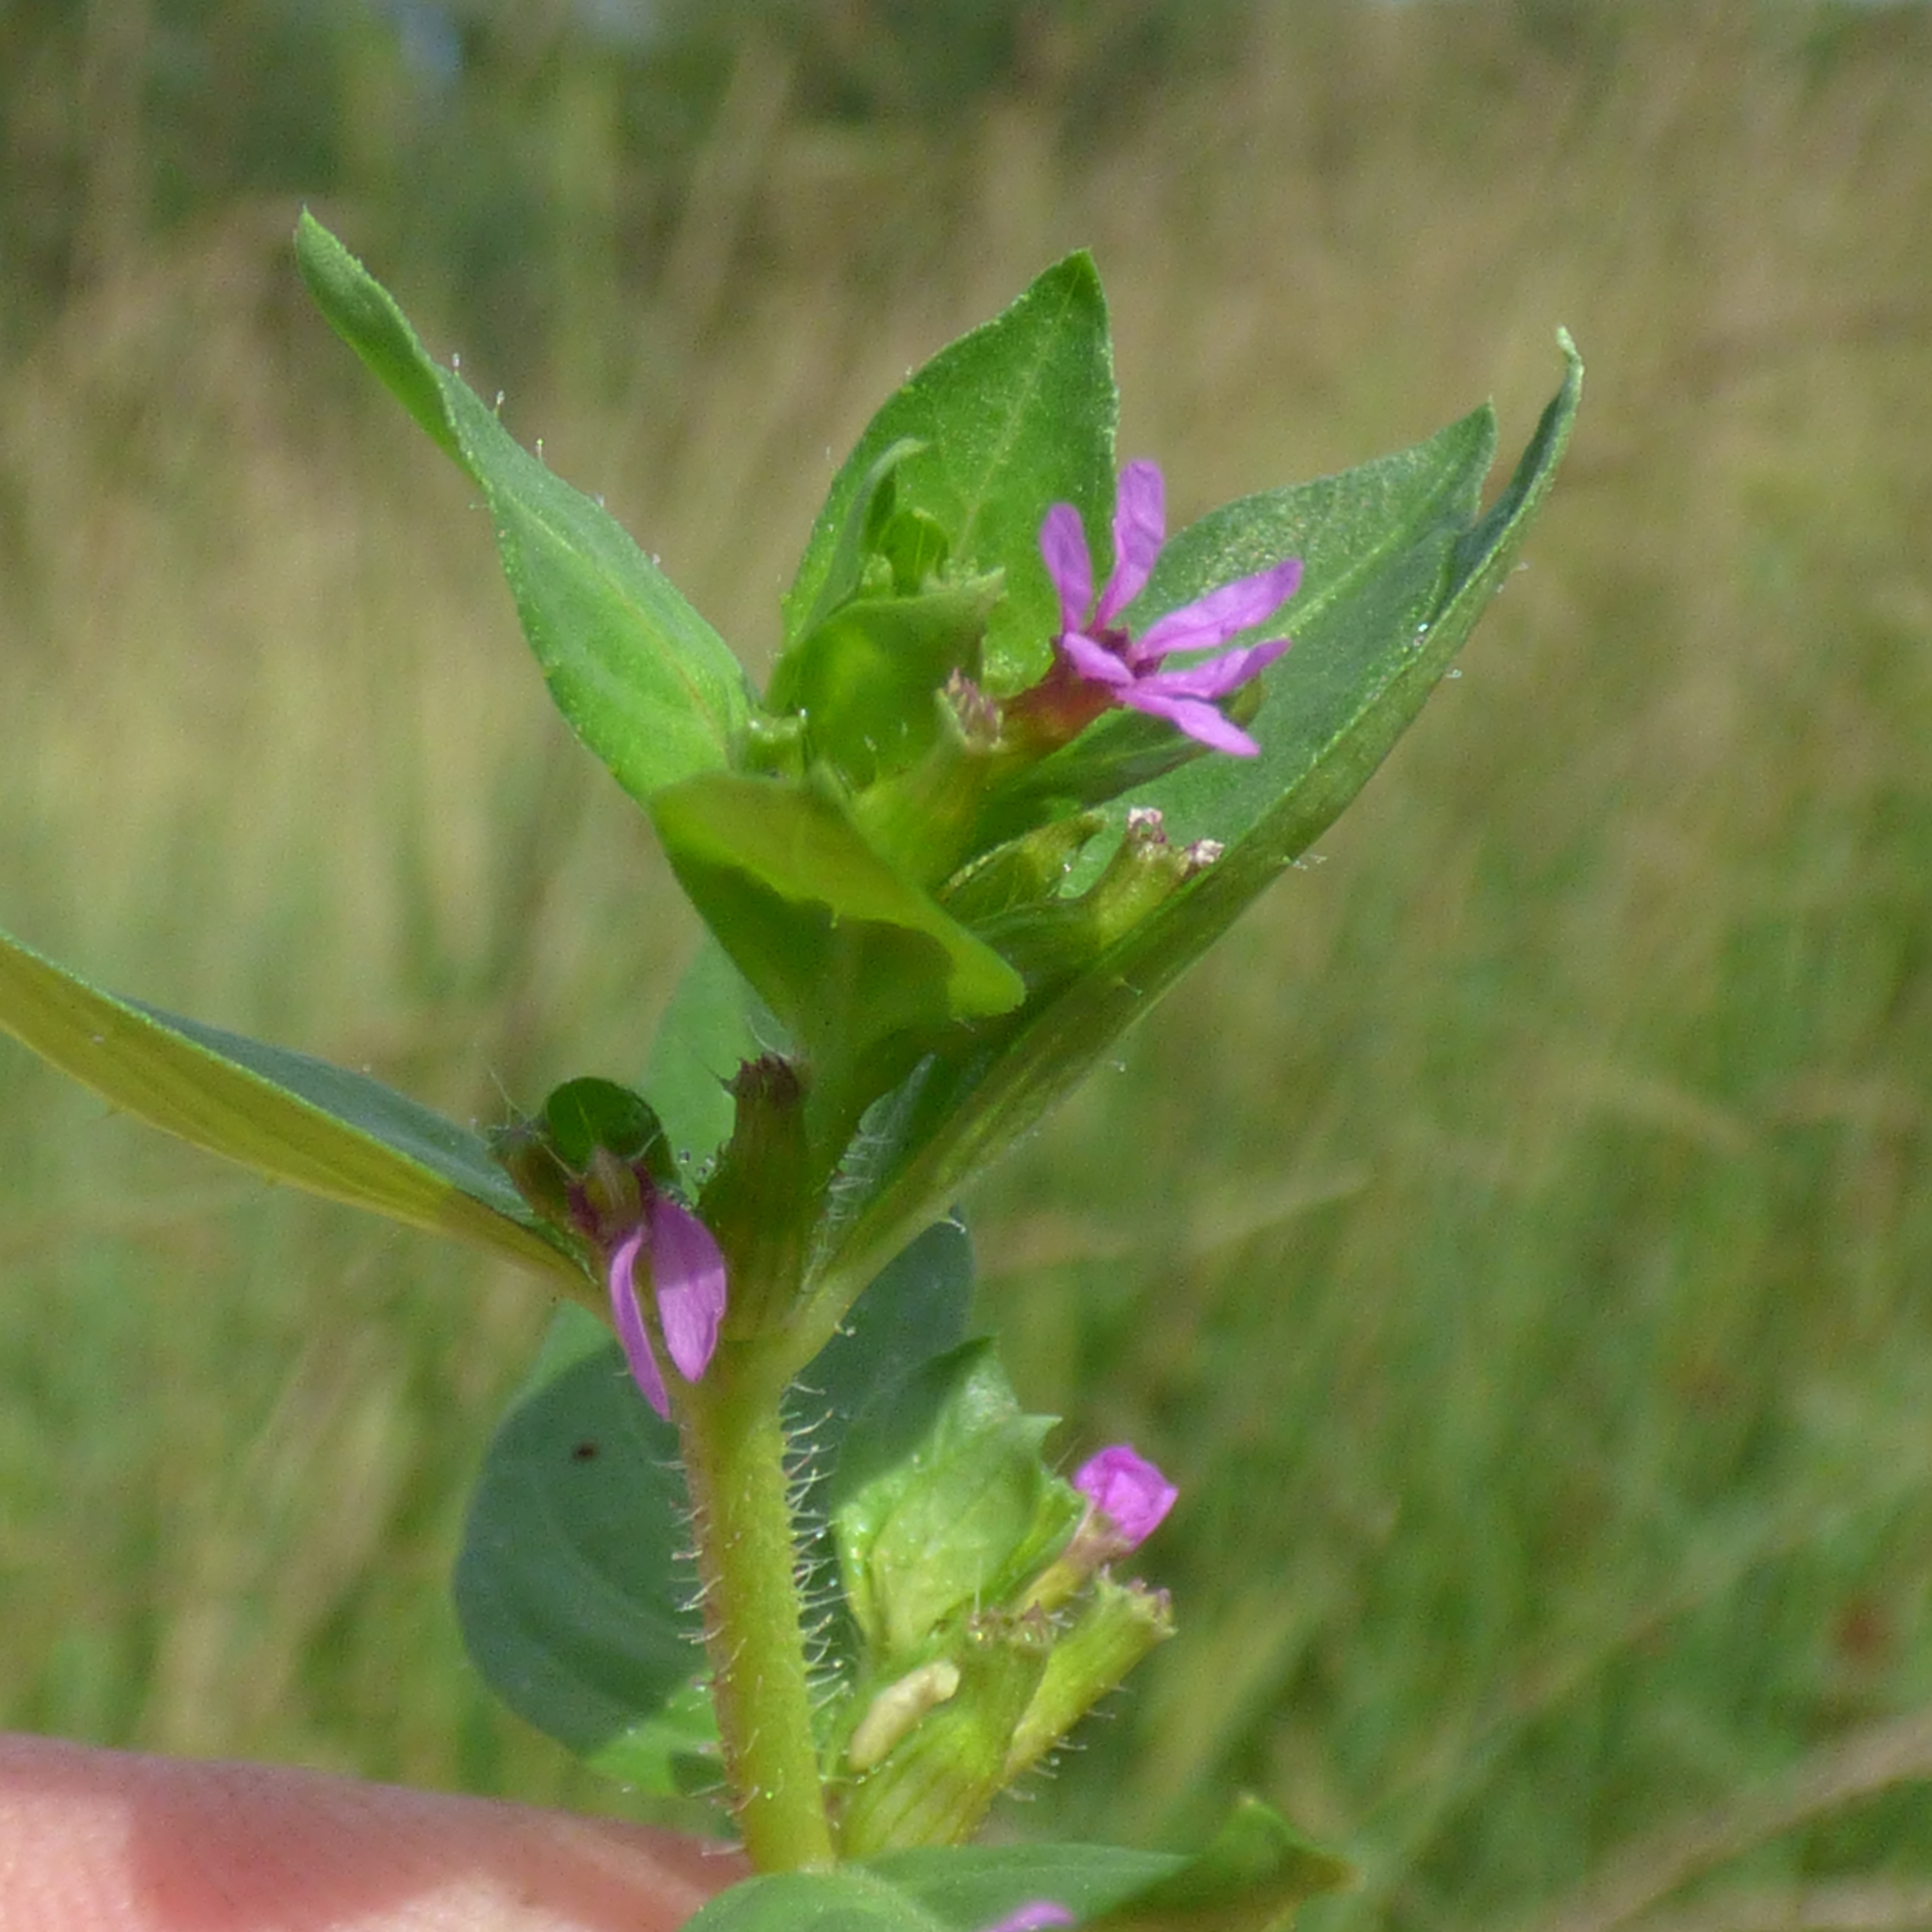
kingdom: Plantae
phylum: Tracheophyta
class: Magnoliopsida
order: Myrtales
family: Lythraceae
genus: Cuphea
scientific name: Cuphea carthagenensis
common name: Colombian waxweed
